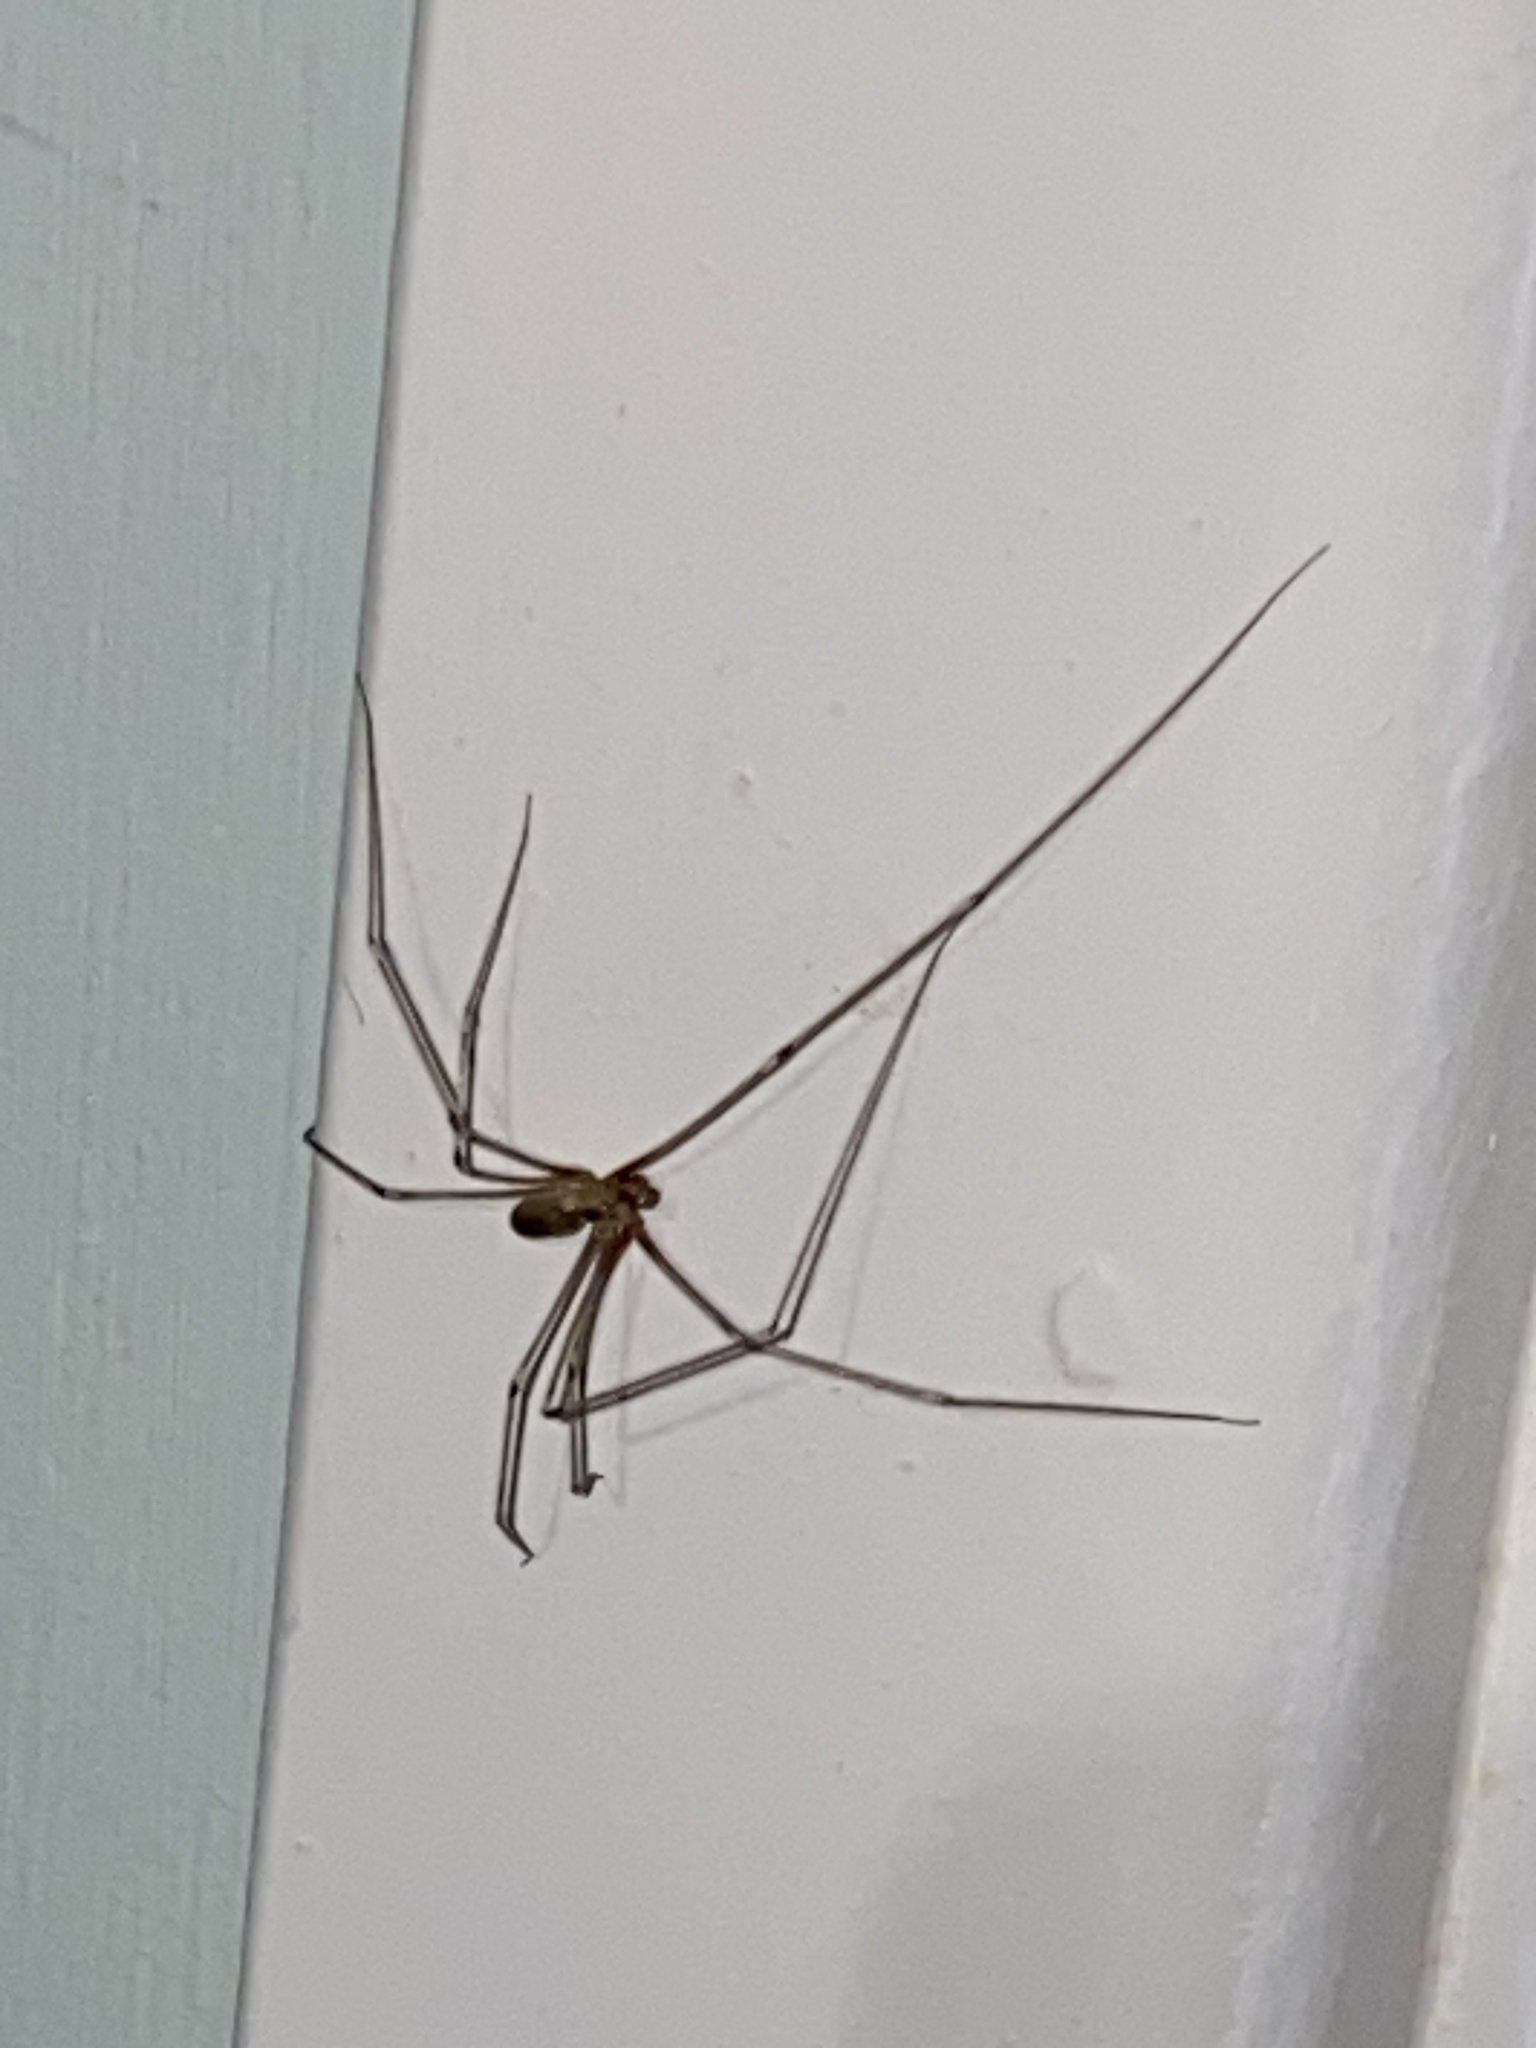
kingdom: Animalia
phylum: Arthropoda
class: Arachnida
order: Araneae
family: Pholcidae
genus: Pholcus
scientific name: Pholcus phalangioides
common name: Longbodied cellar spider
